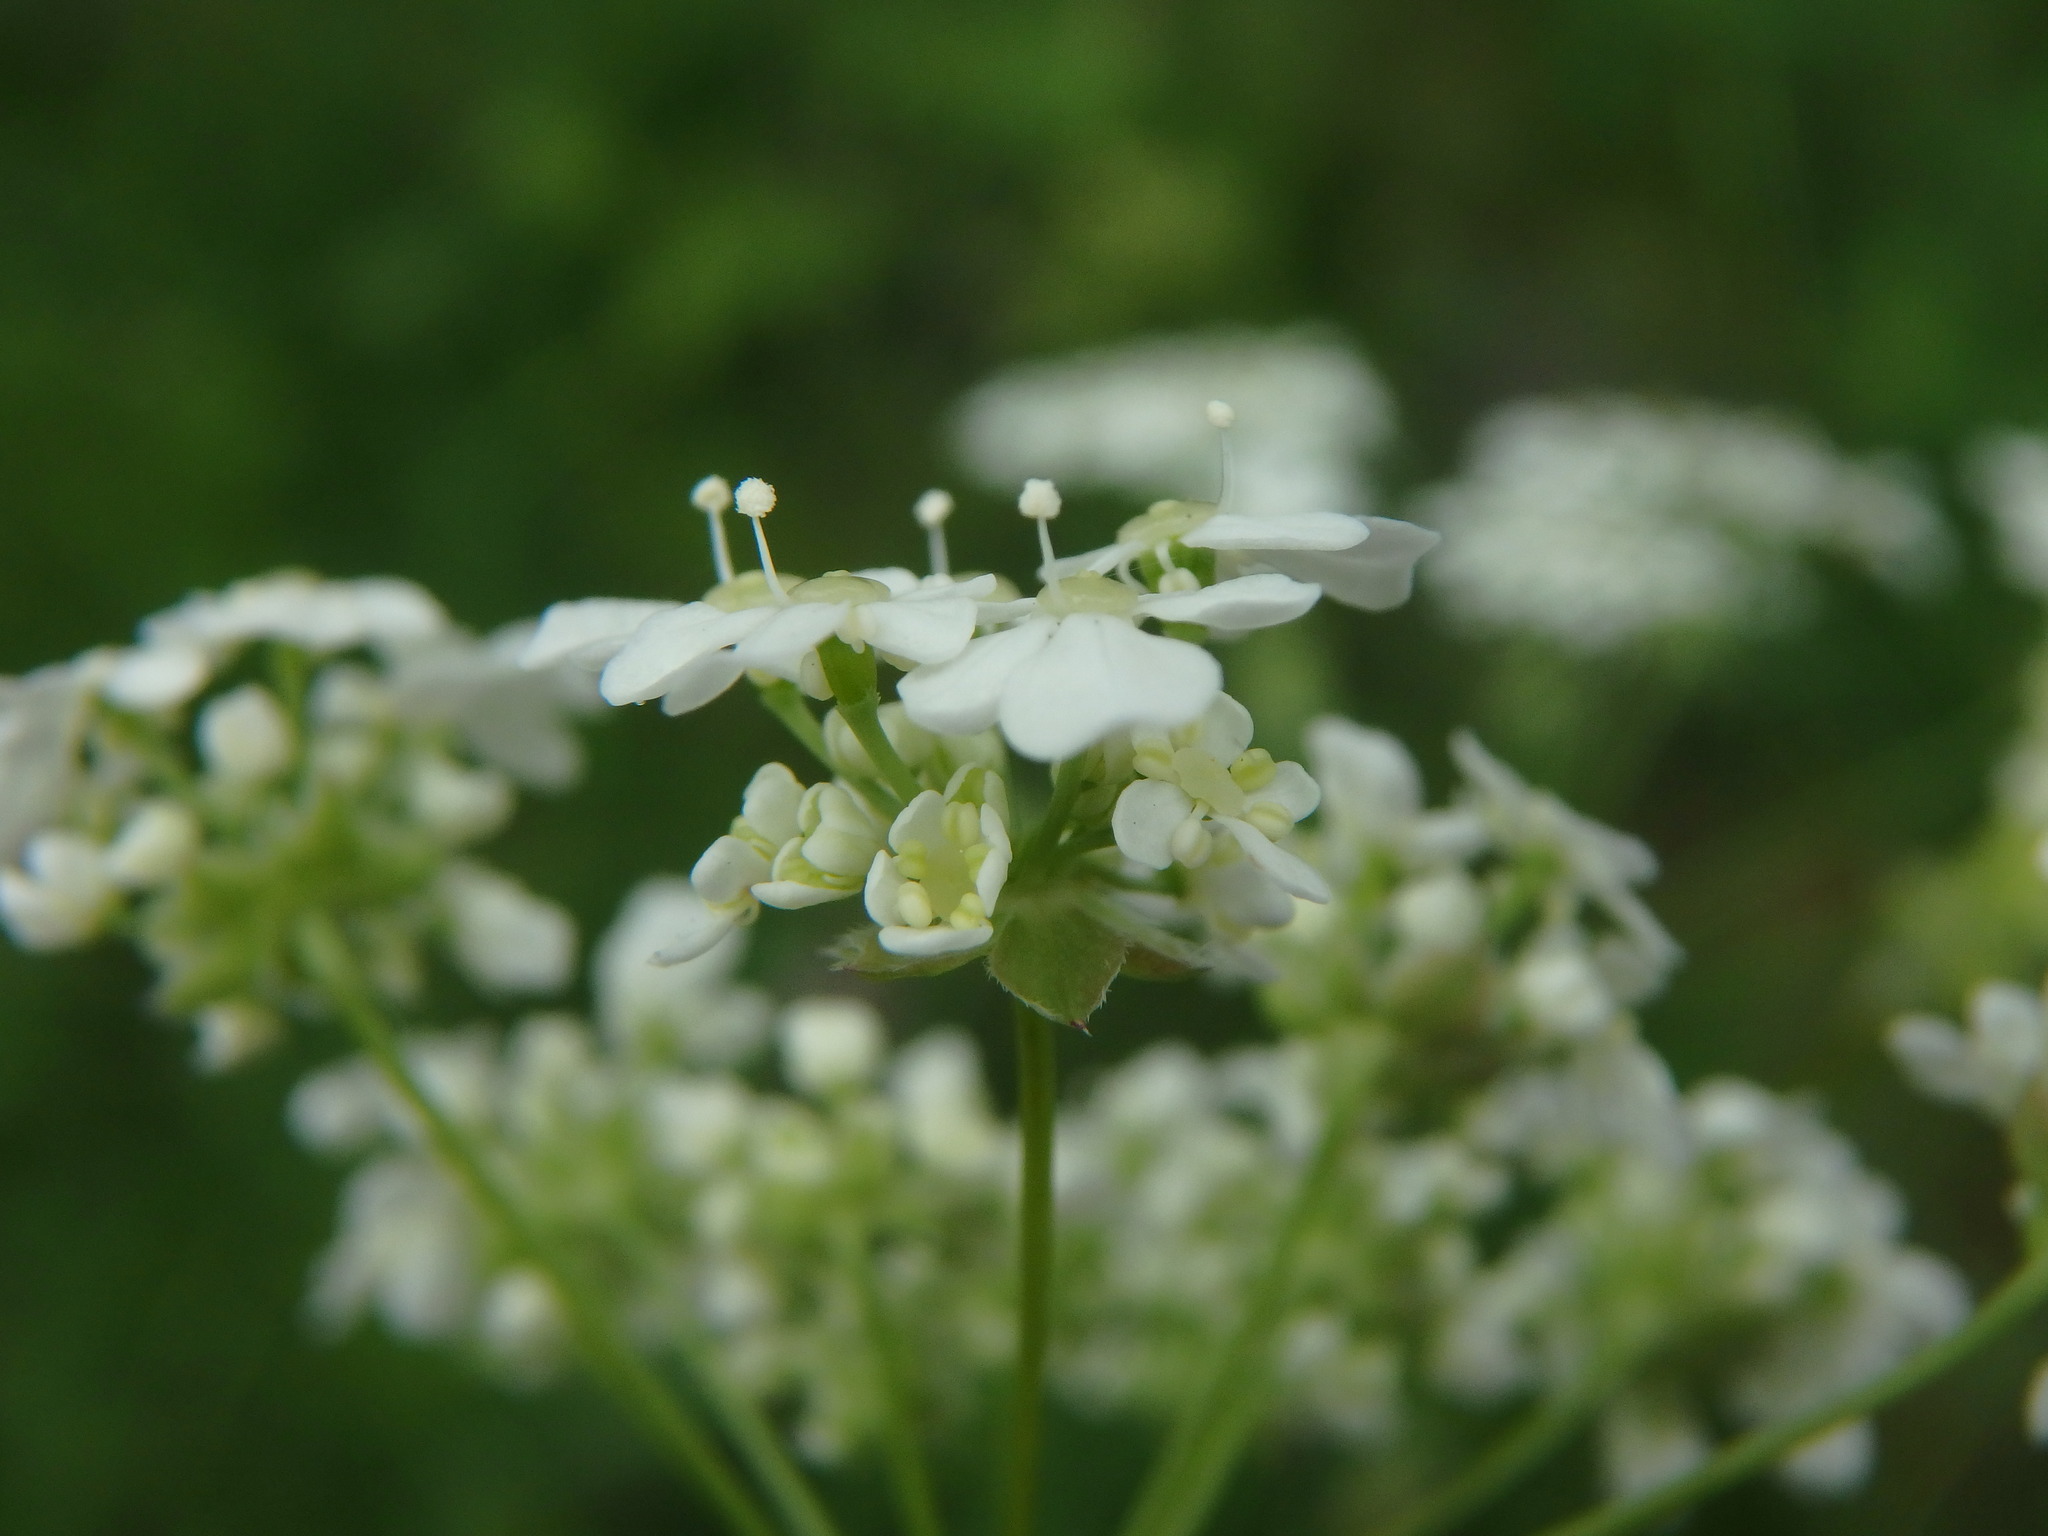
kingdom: Plantae
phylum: Tracheophyta
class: Magnoliopsida
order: Apiales
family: Apiaceae
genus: Anthriscus
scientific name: Anthriscus sylvestris
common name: Cow parsley
